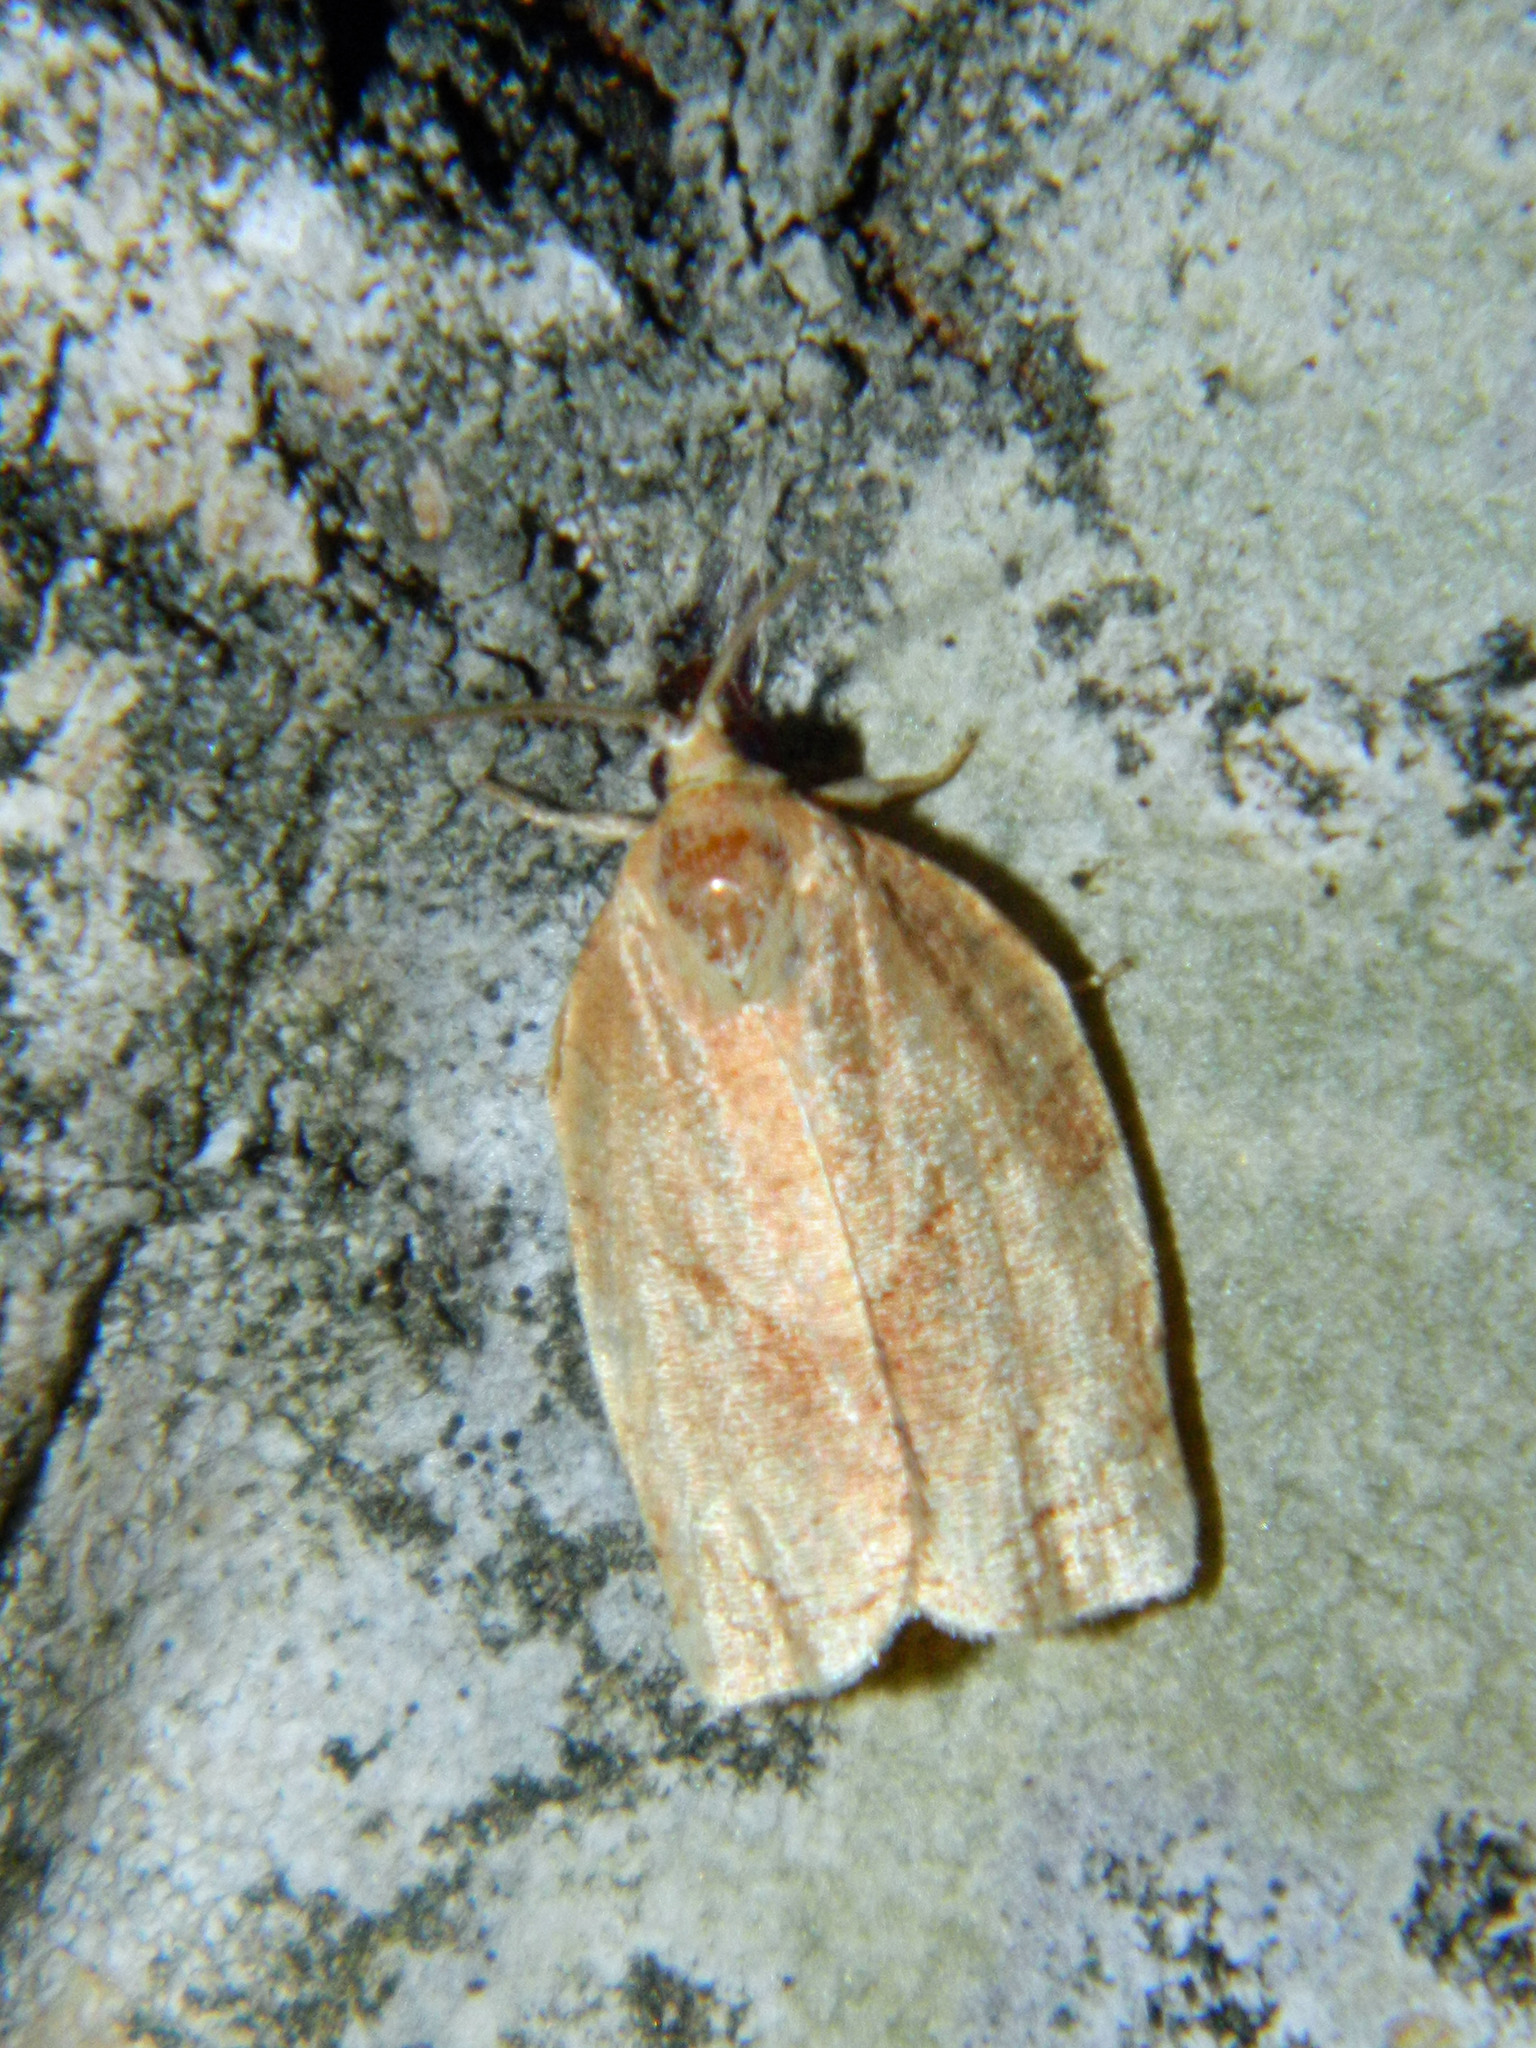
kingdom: Animalia
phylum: Arthropoda
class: Insecta
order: Lepidoptera
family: Tortricidae
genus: Choristoneura
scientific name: Choristoneura rosaceana
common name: Oblique-banded leafroller moth
